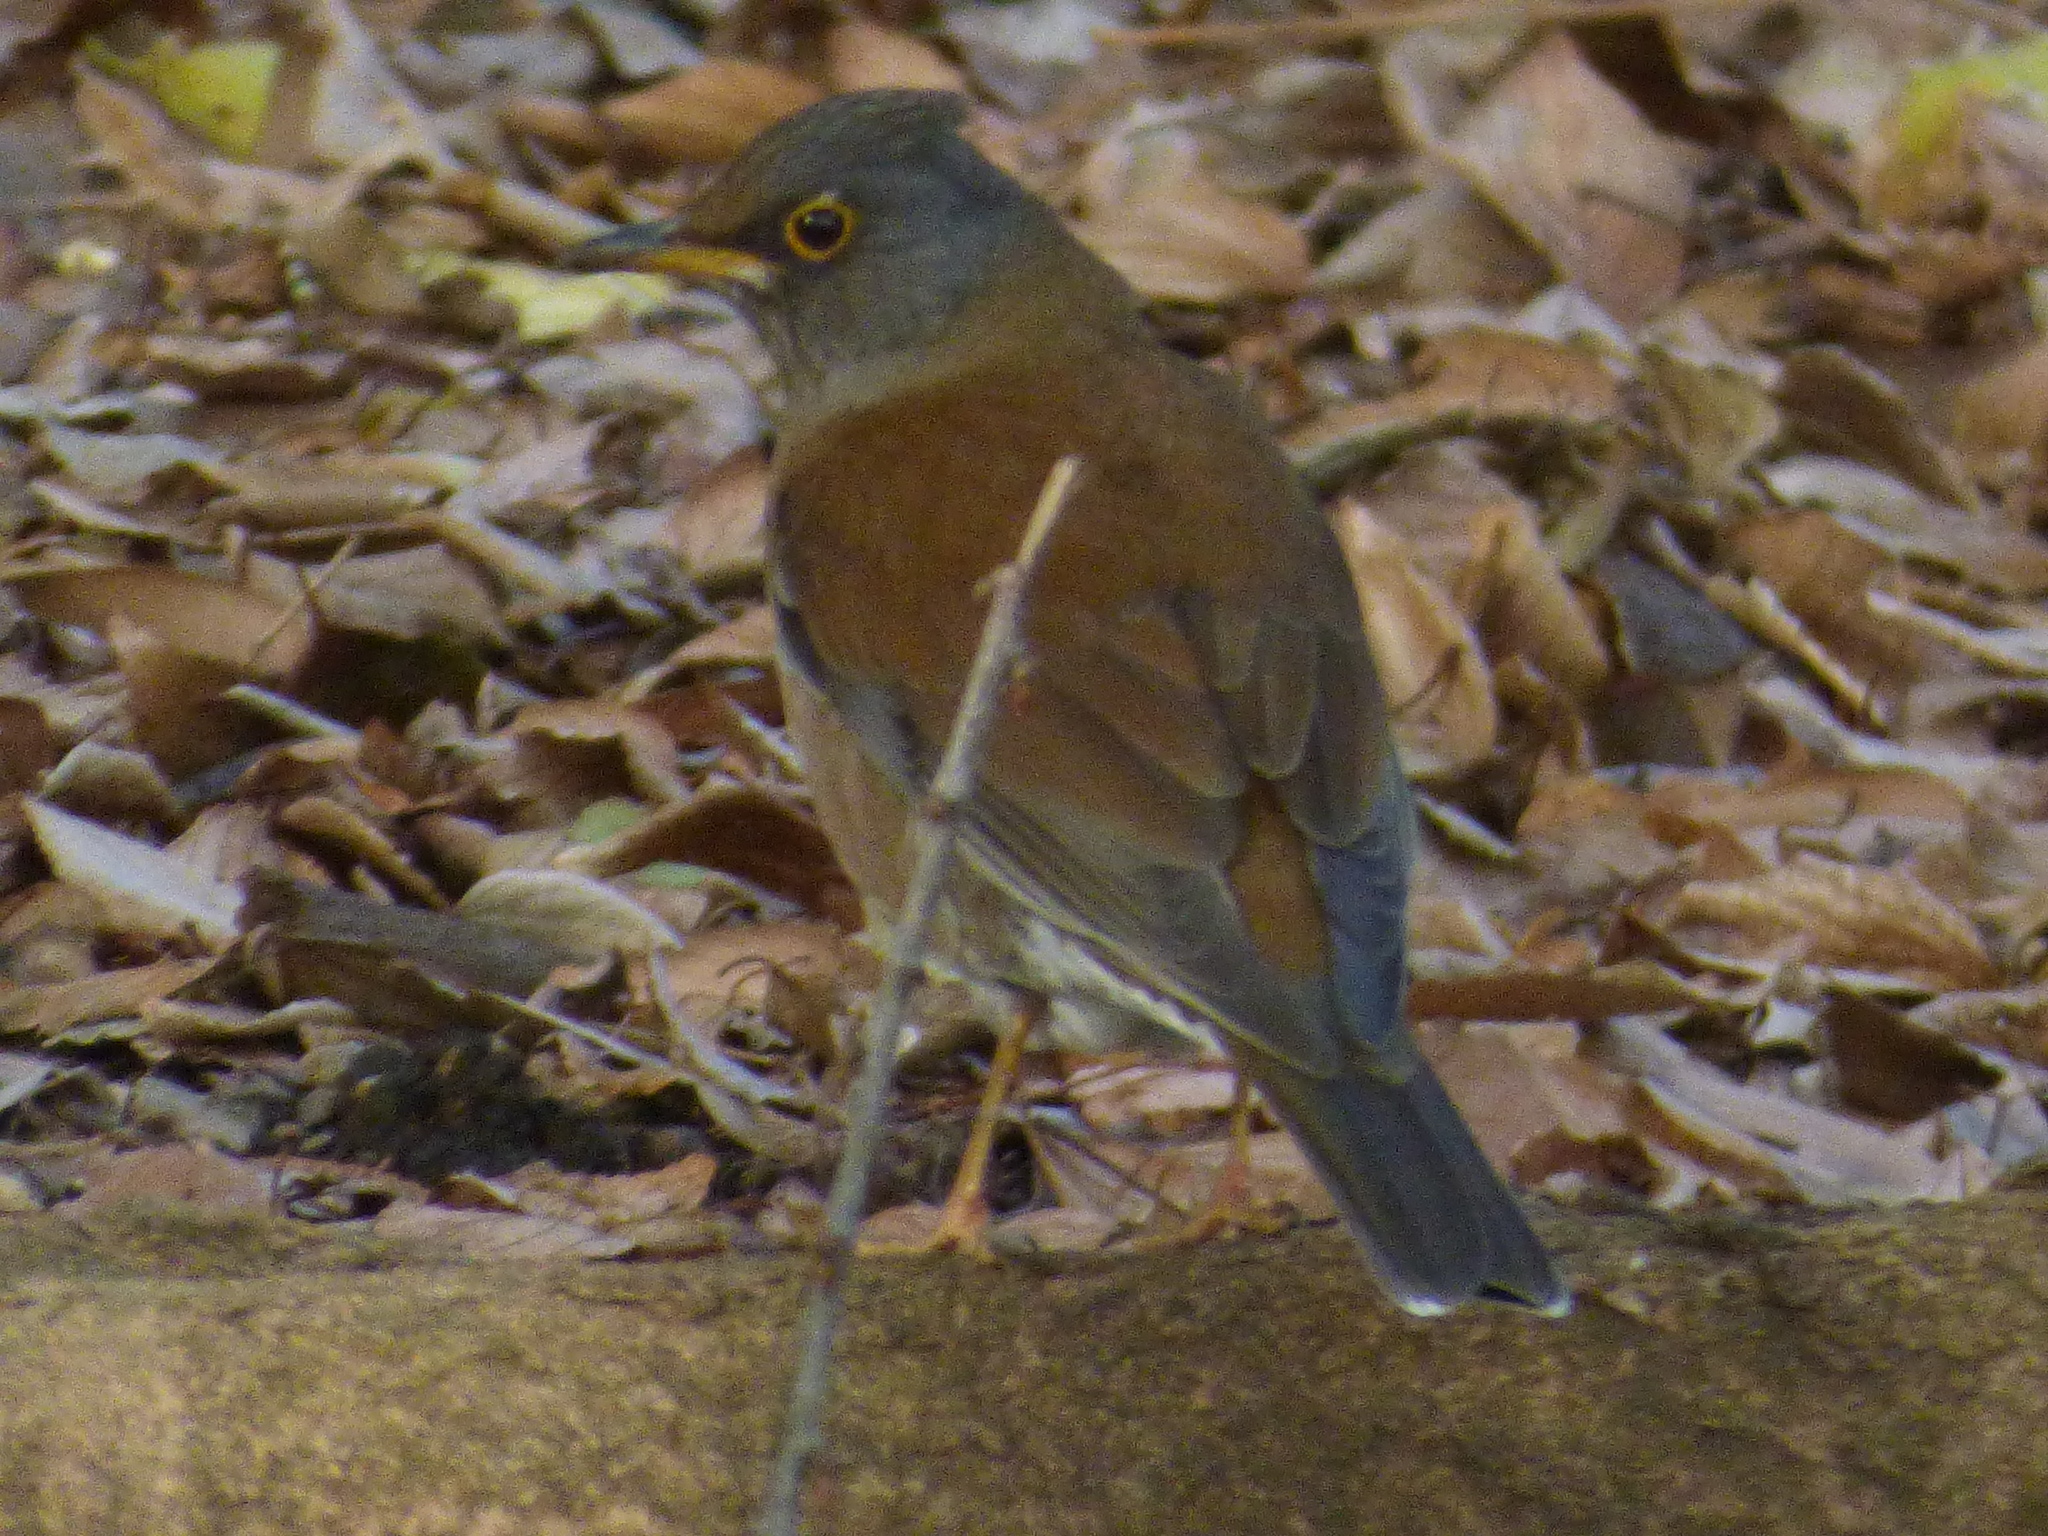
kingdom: Animalia
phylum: Chordata
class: Aves
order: Passeriformes
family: Turdidae
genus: Turdus
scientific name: Turdus pallidus
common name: Pale thrush
